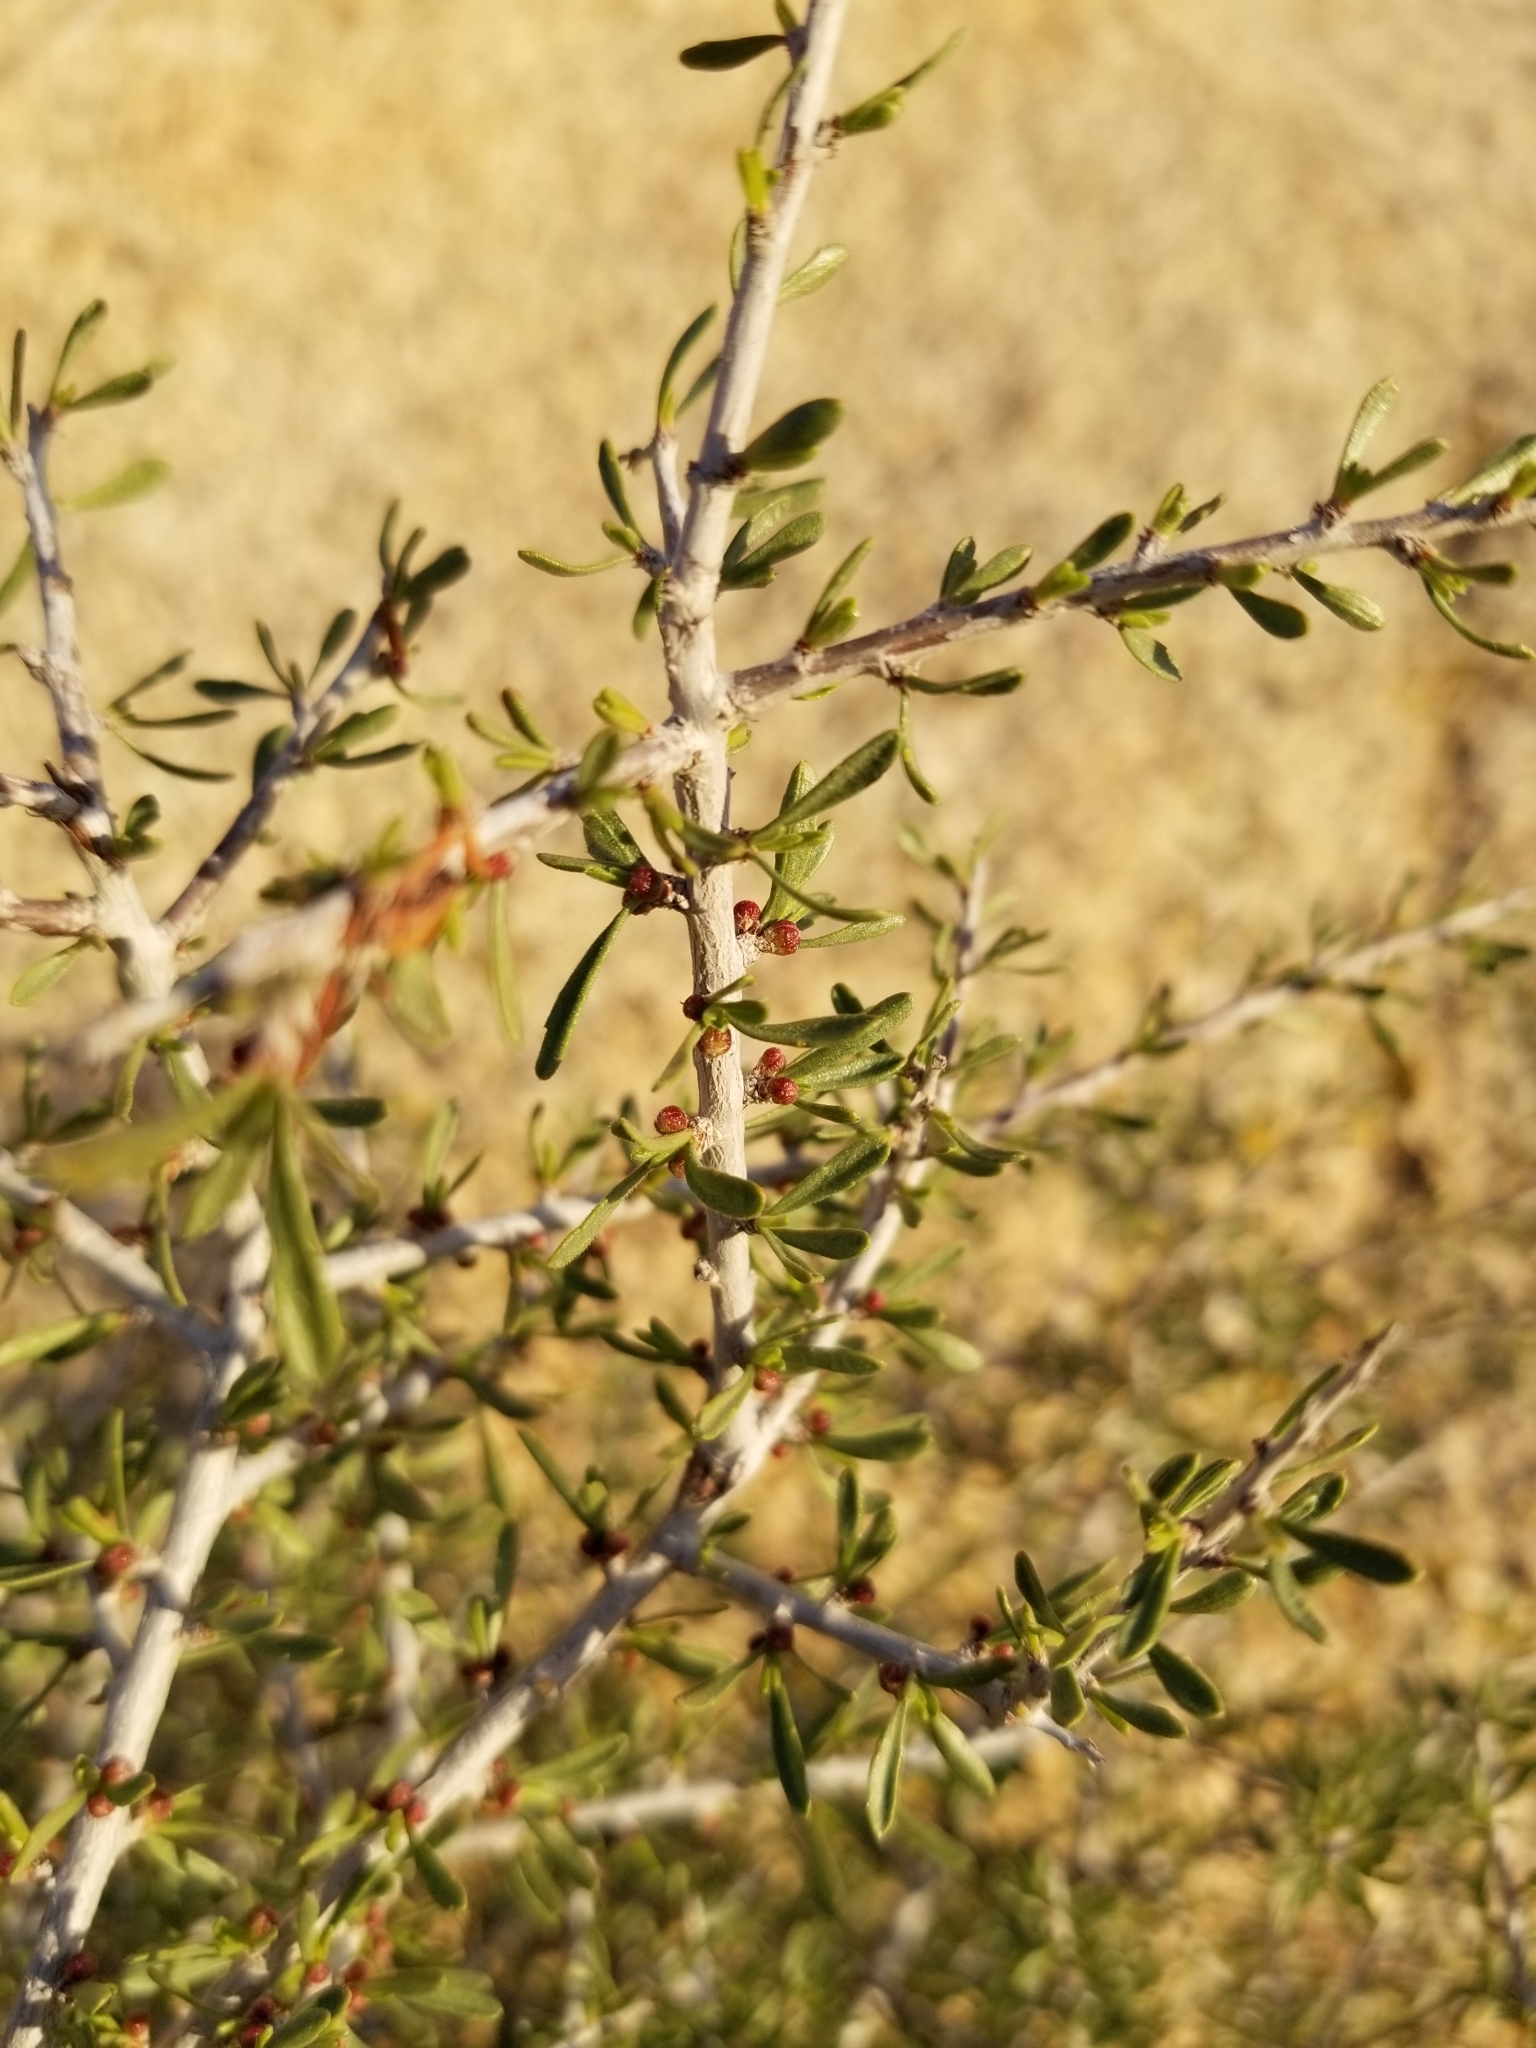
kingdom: Plantae
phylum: Tracheophyta
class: Magnoliopsida
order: Rosales
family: Rosaceae
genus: Prunus
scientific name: Prunus fasciculata
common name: Desert almond
